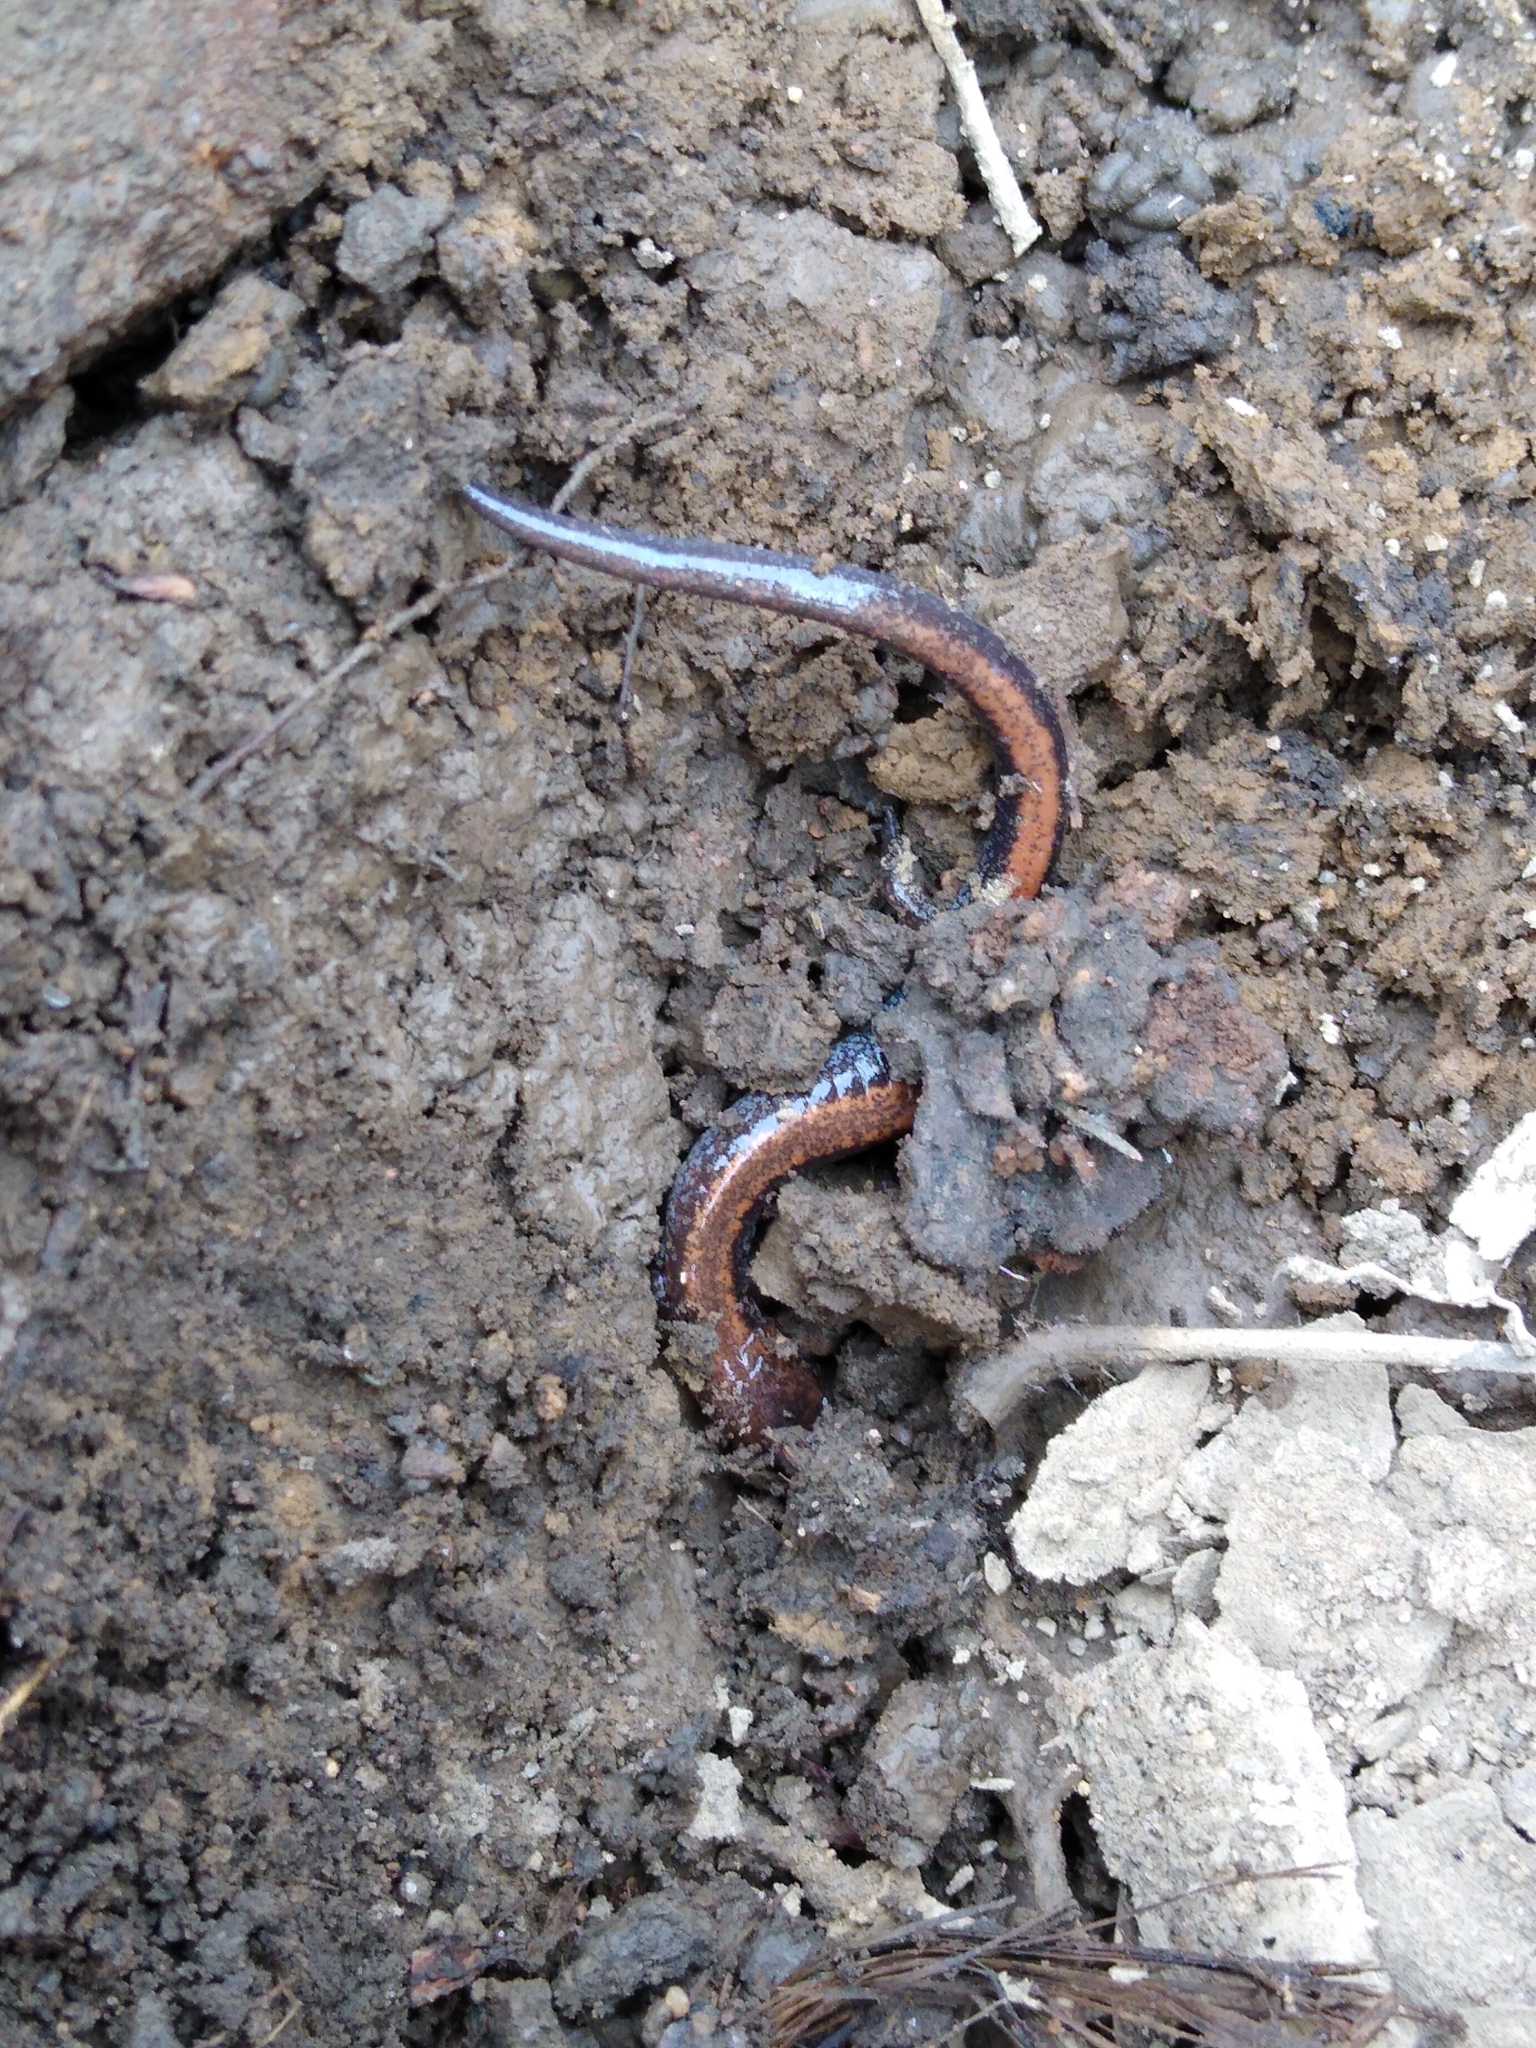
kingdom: Animalia
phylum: Chordata
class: Amphibia
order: Caudata
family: Plethodontidae
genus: Plethodon
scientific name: Plethodon cinereus
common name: Redback salamander
